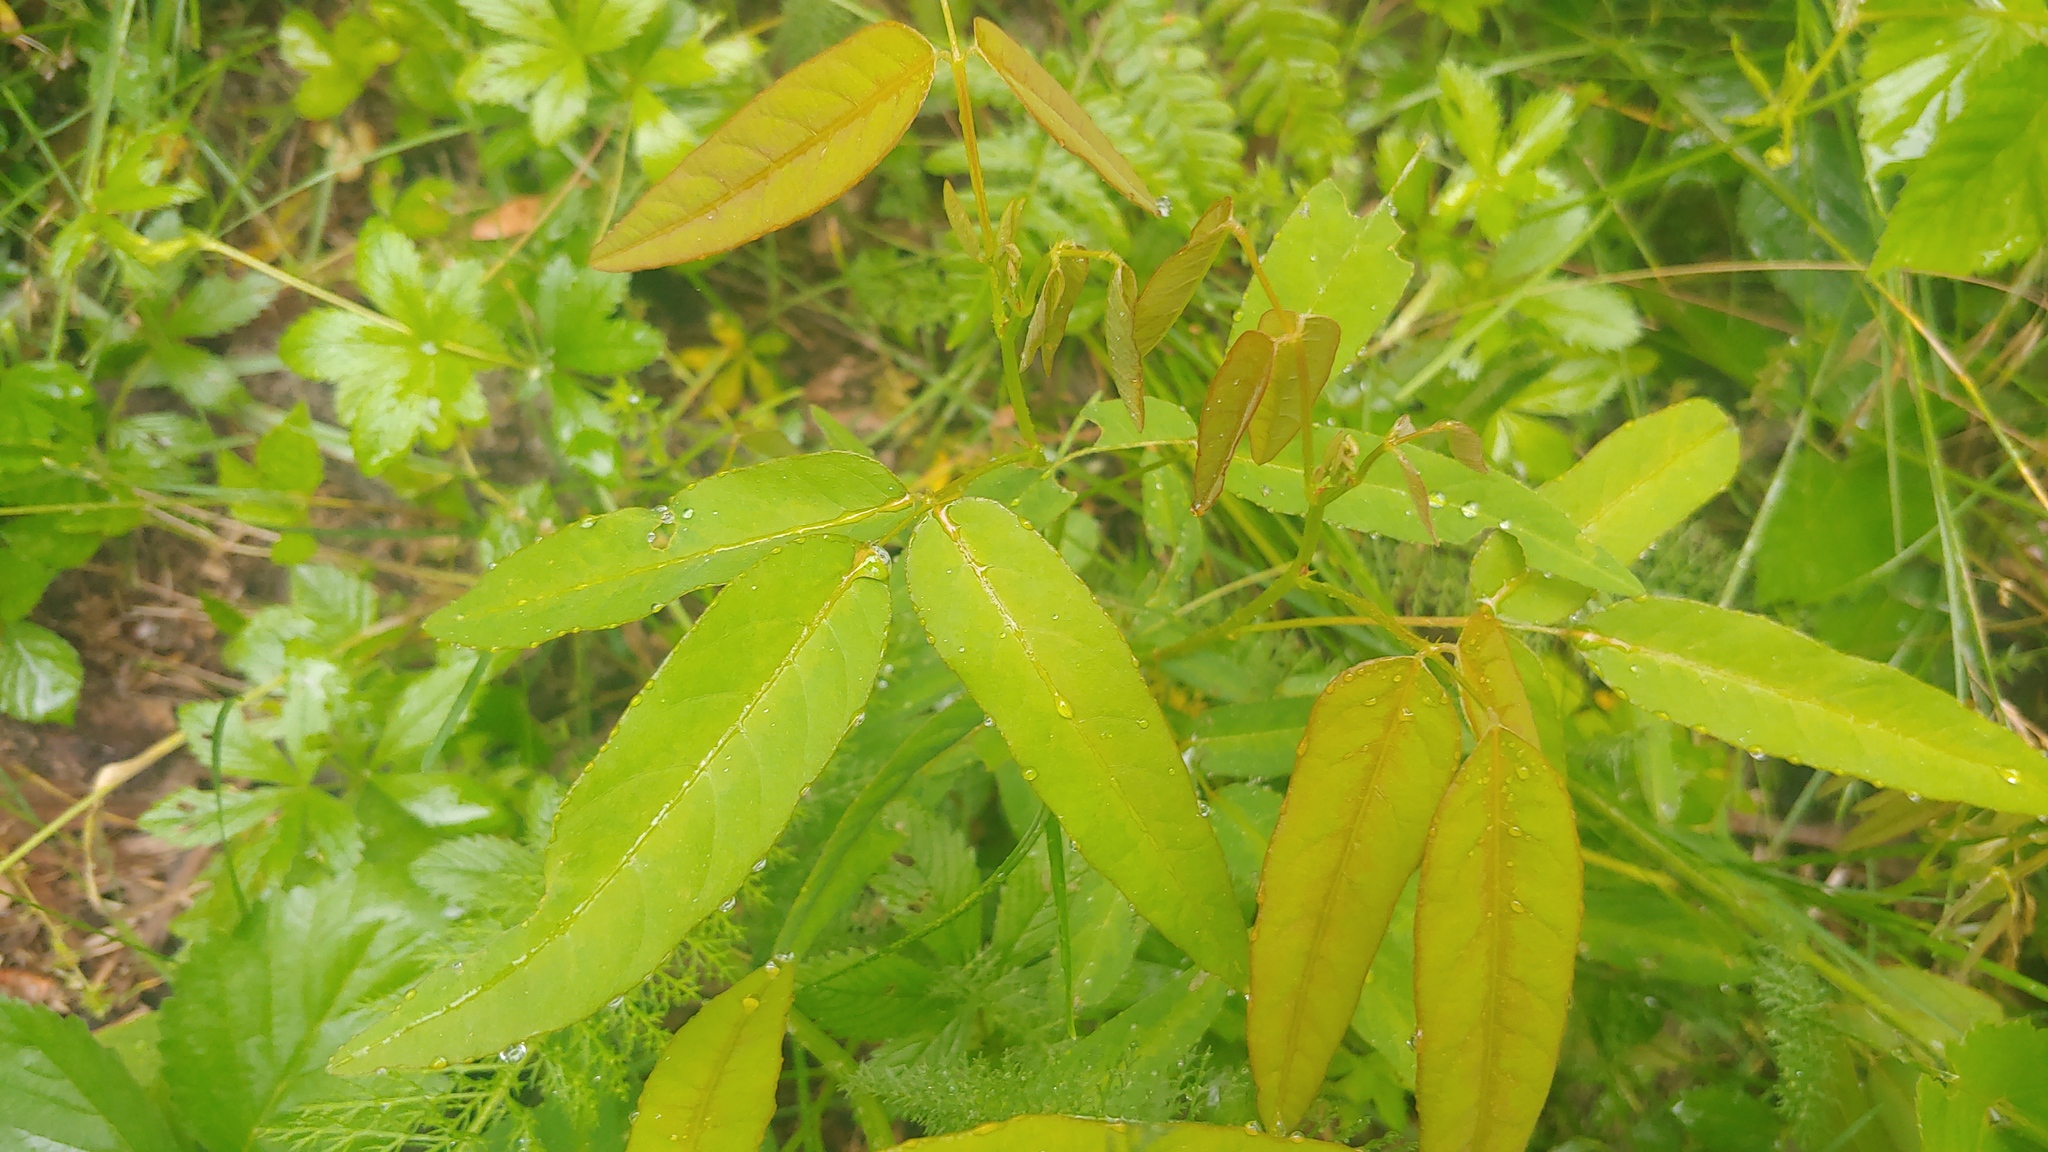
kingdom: Plantae
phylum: Tracheophyta
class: Magnoliopsida
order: Fabales
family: Fabaceae
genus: Desmodium
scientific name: Desmodium paniculatum
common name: Panicled tick-clover
